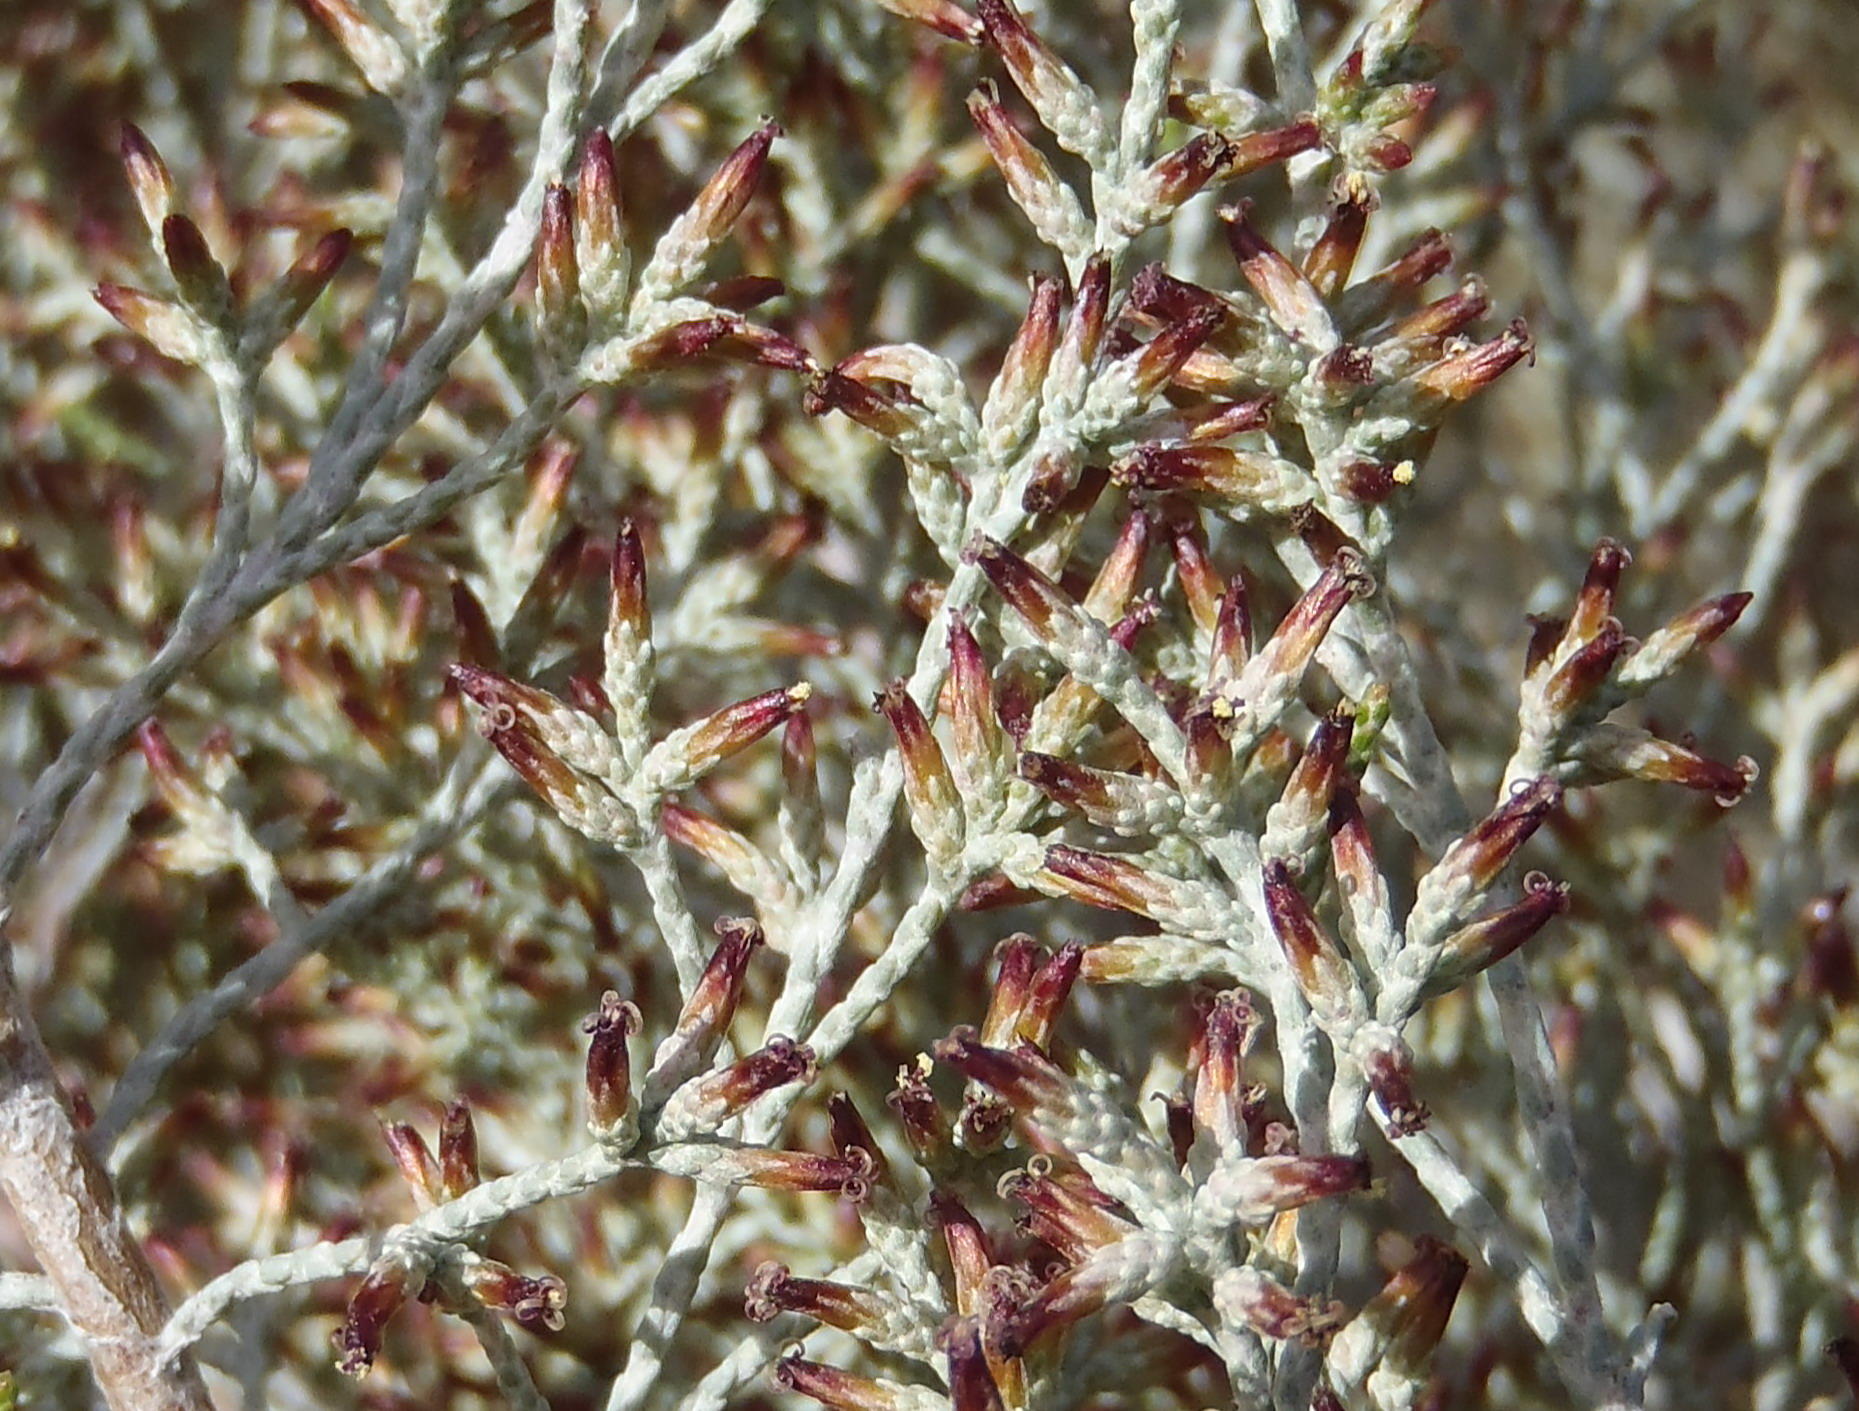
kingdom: Plantae
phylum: Tracheophyta
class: Magnoliopsida
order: Asterales
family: Asteraceae
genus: Dicerothamnus
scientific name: Dicerothamnus rhinocerotis
